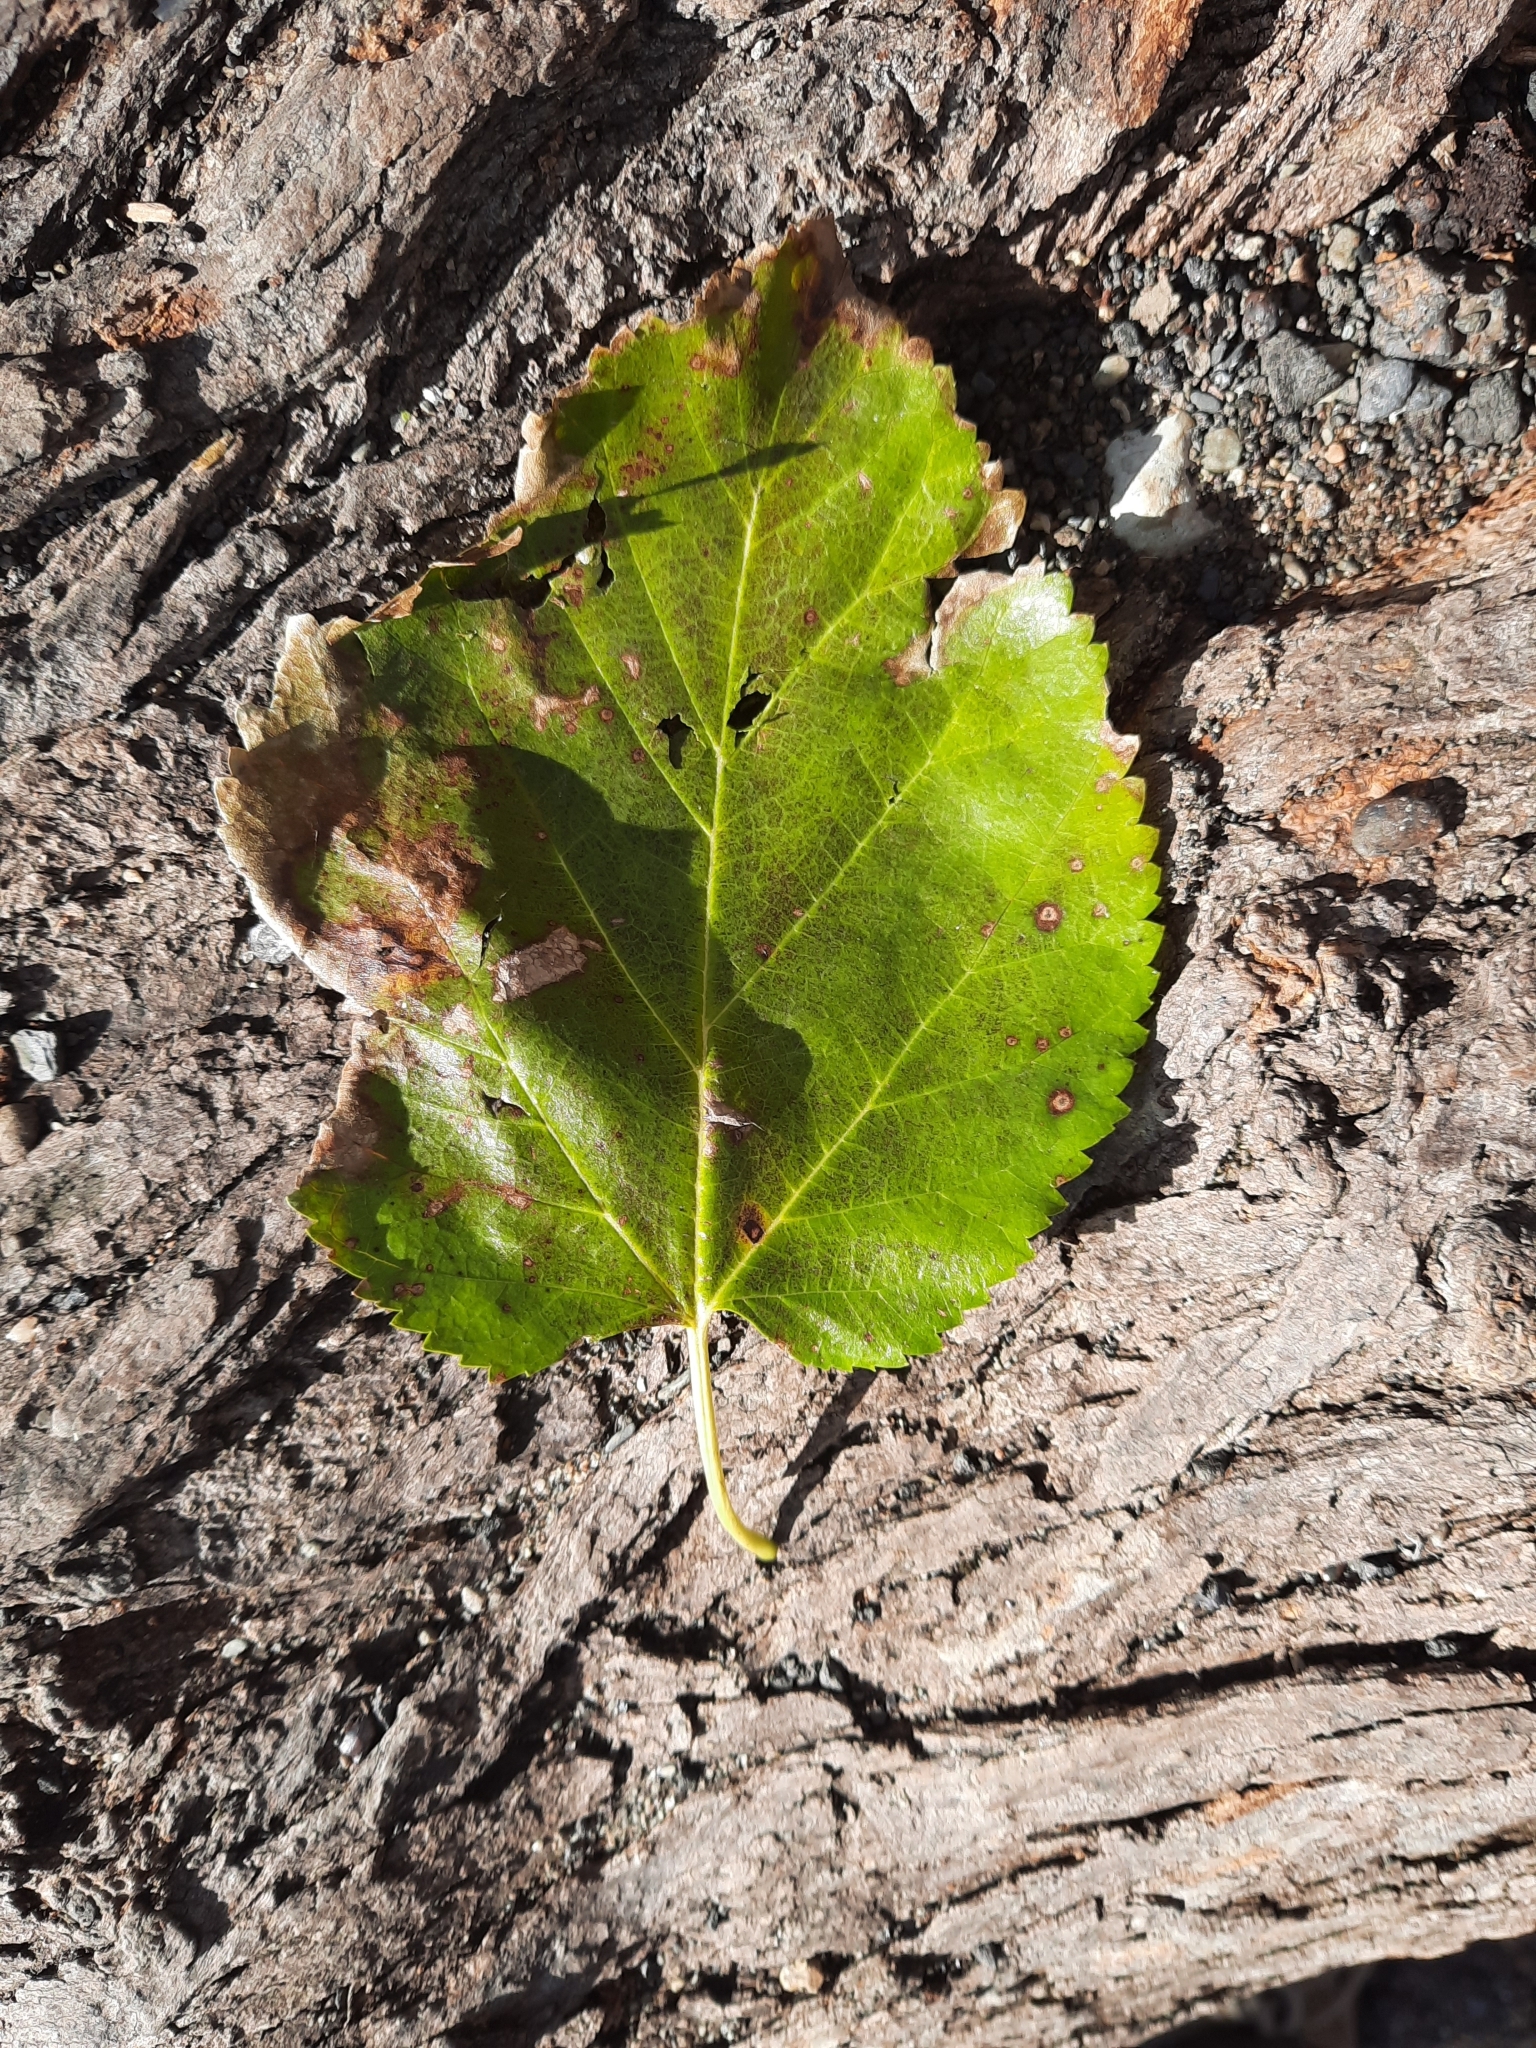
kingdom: Plantae
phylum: Tracheophyta
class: Magnoliopsida
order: Rosales
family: Moraceae
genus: Morus
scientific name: Morus alba
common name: White mulberry
